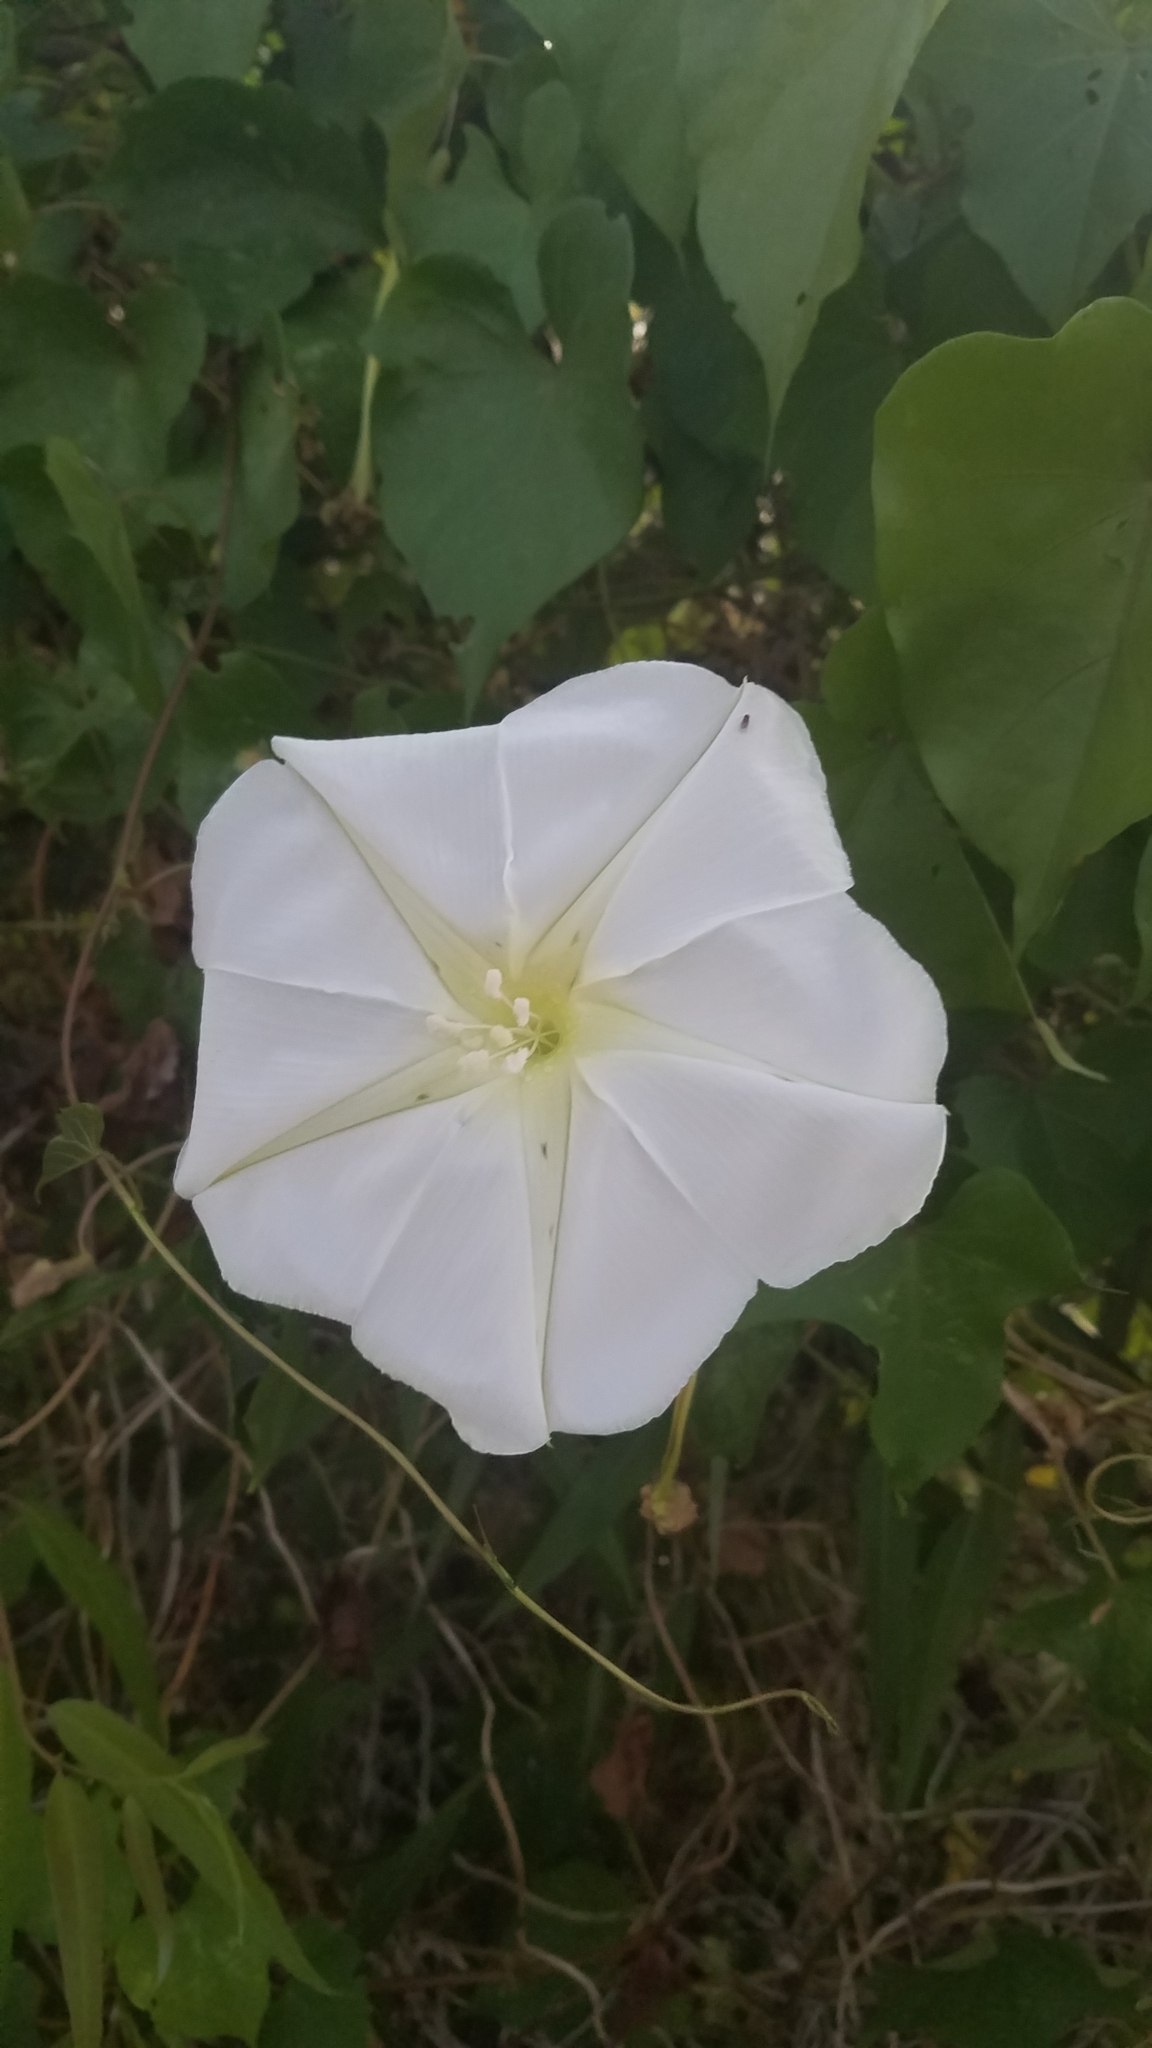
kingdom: Plantae
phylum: Tracheophyta
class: Magnoliopsida
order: Solanales
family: Convolvulaceae
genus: Ipomoea
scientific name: Ipomoea alba
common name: Moonflower
